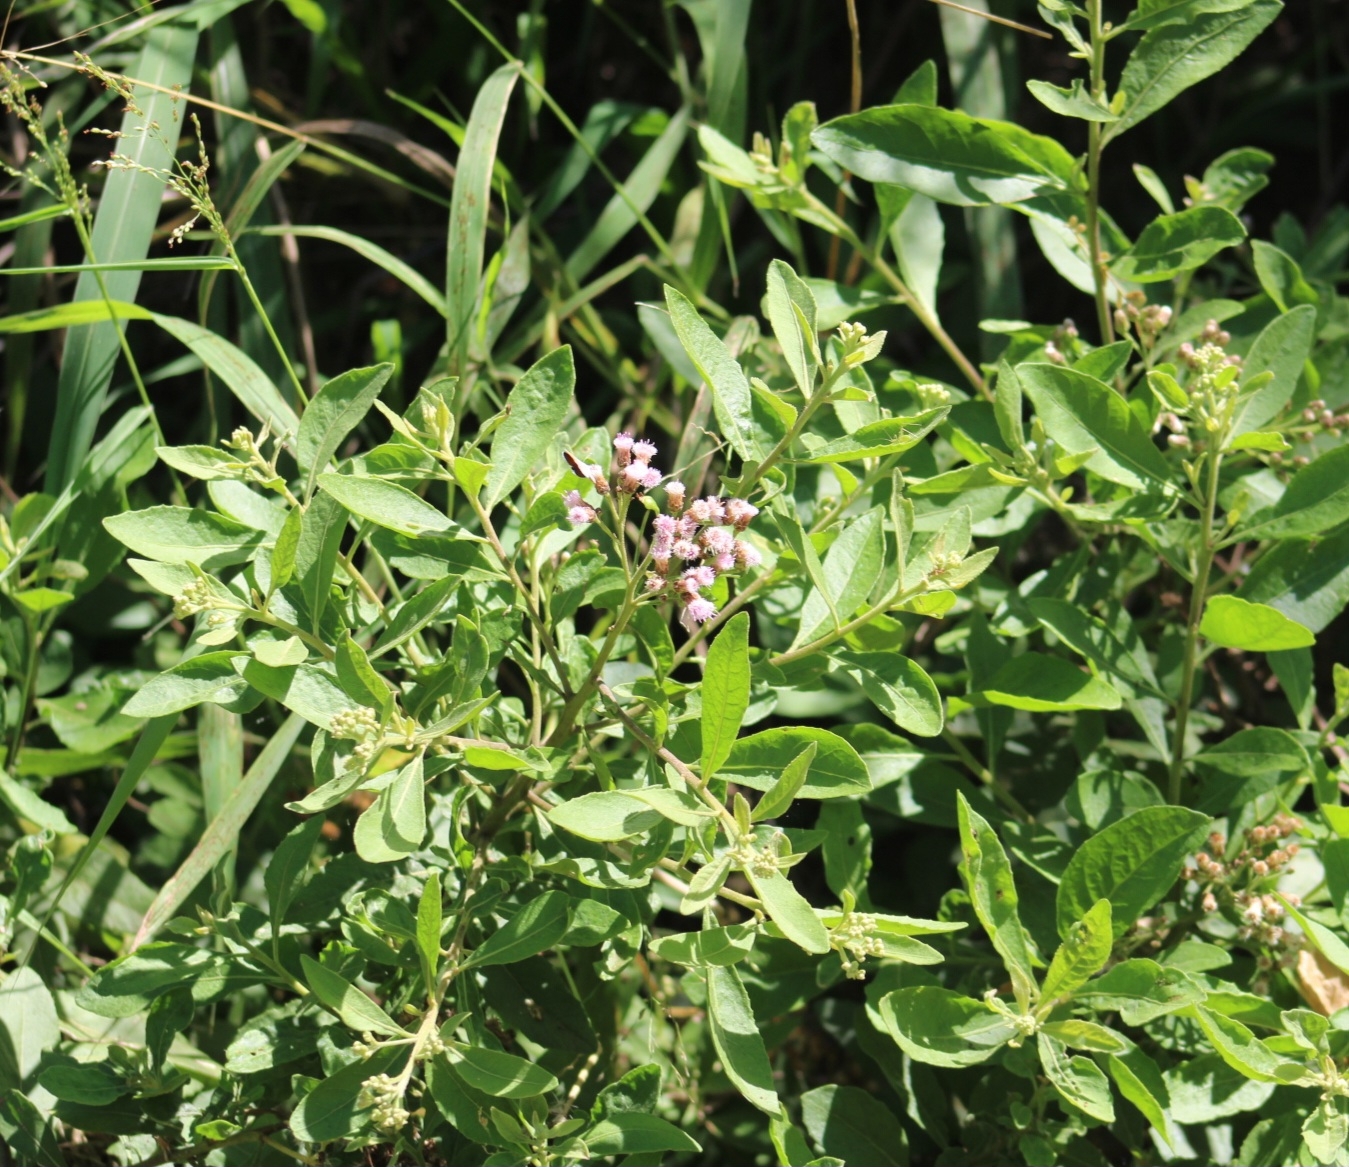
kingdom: Plantae
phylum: Tracheophyta
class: Magnoliopsida
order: Asterales
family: Asteraceae
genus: Pluchea
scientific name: Pluchea fosbergii
